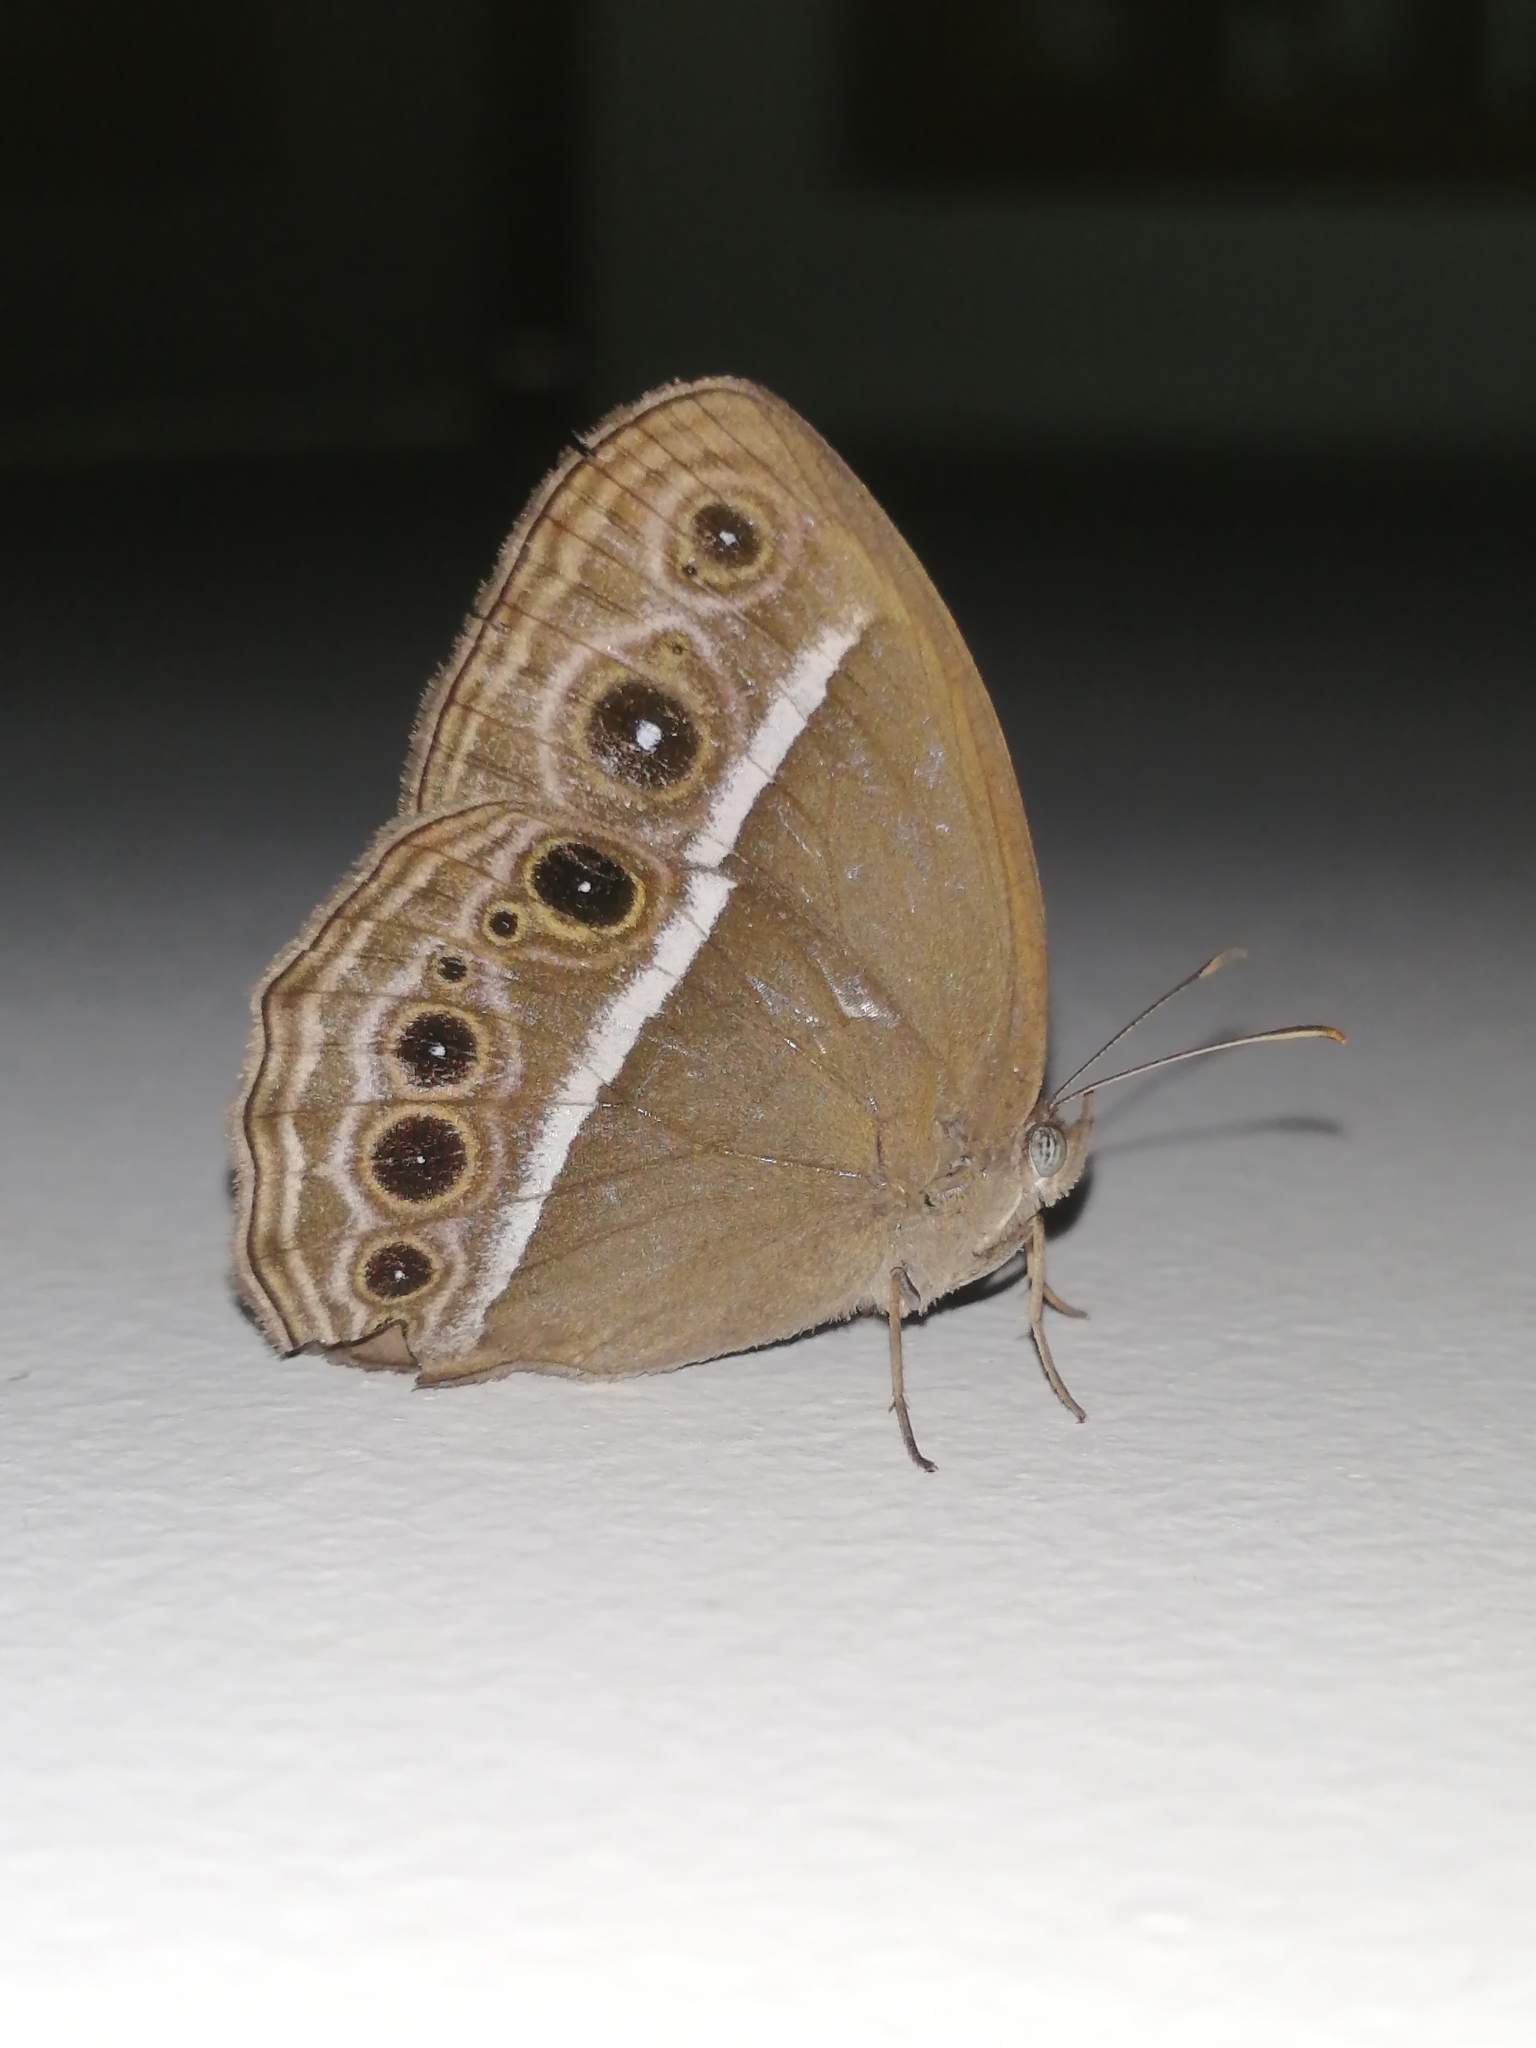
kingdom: Animalia
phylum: Arthropoda
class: Insecta
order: Lepidoptera
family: Nymphalidae
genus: Mycalesis
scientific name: Mycalesis mineus
